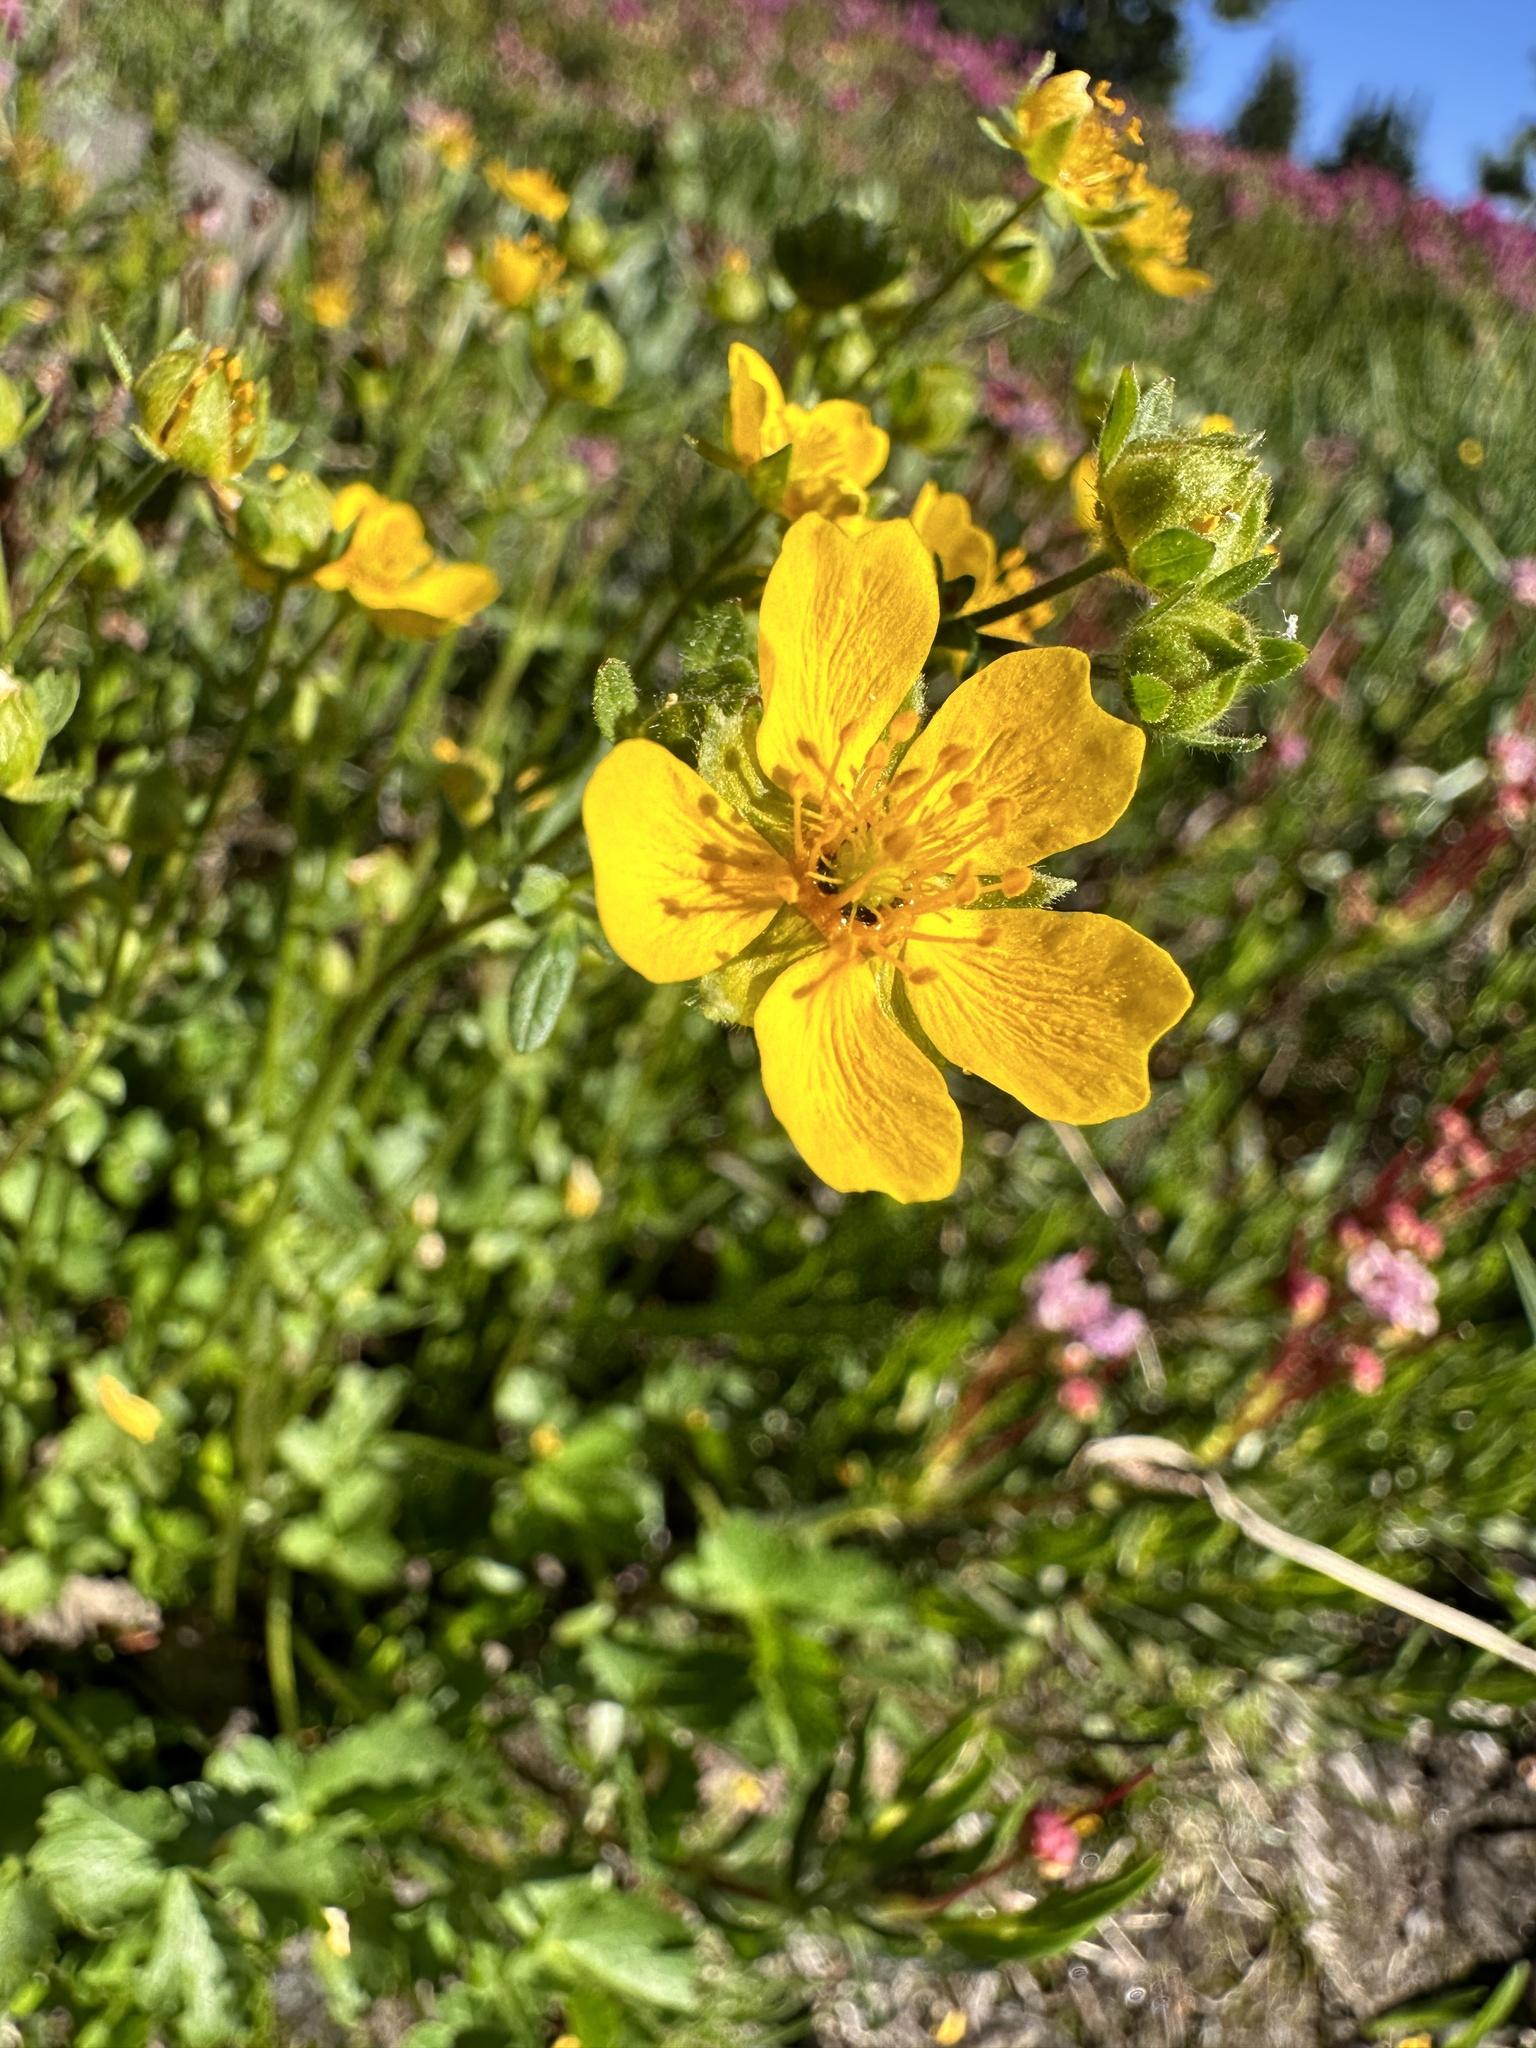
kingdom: Plantae
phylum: Tracheophyta
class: Magnoliopsida
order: Rosales
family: Rosaceae
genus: Potentilla
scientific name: Potentilla flabellifolia
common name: Mount rainier cinquefoil
